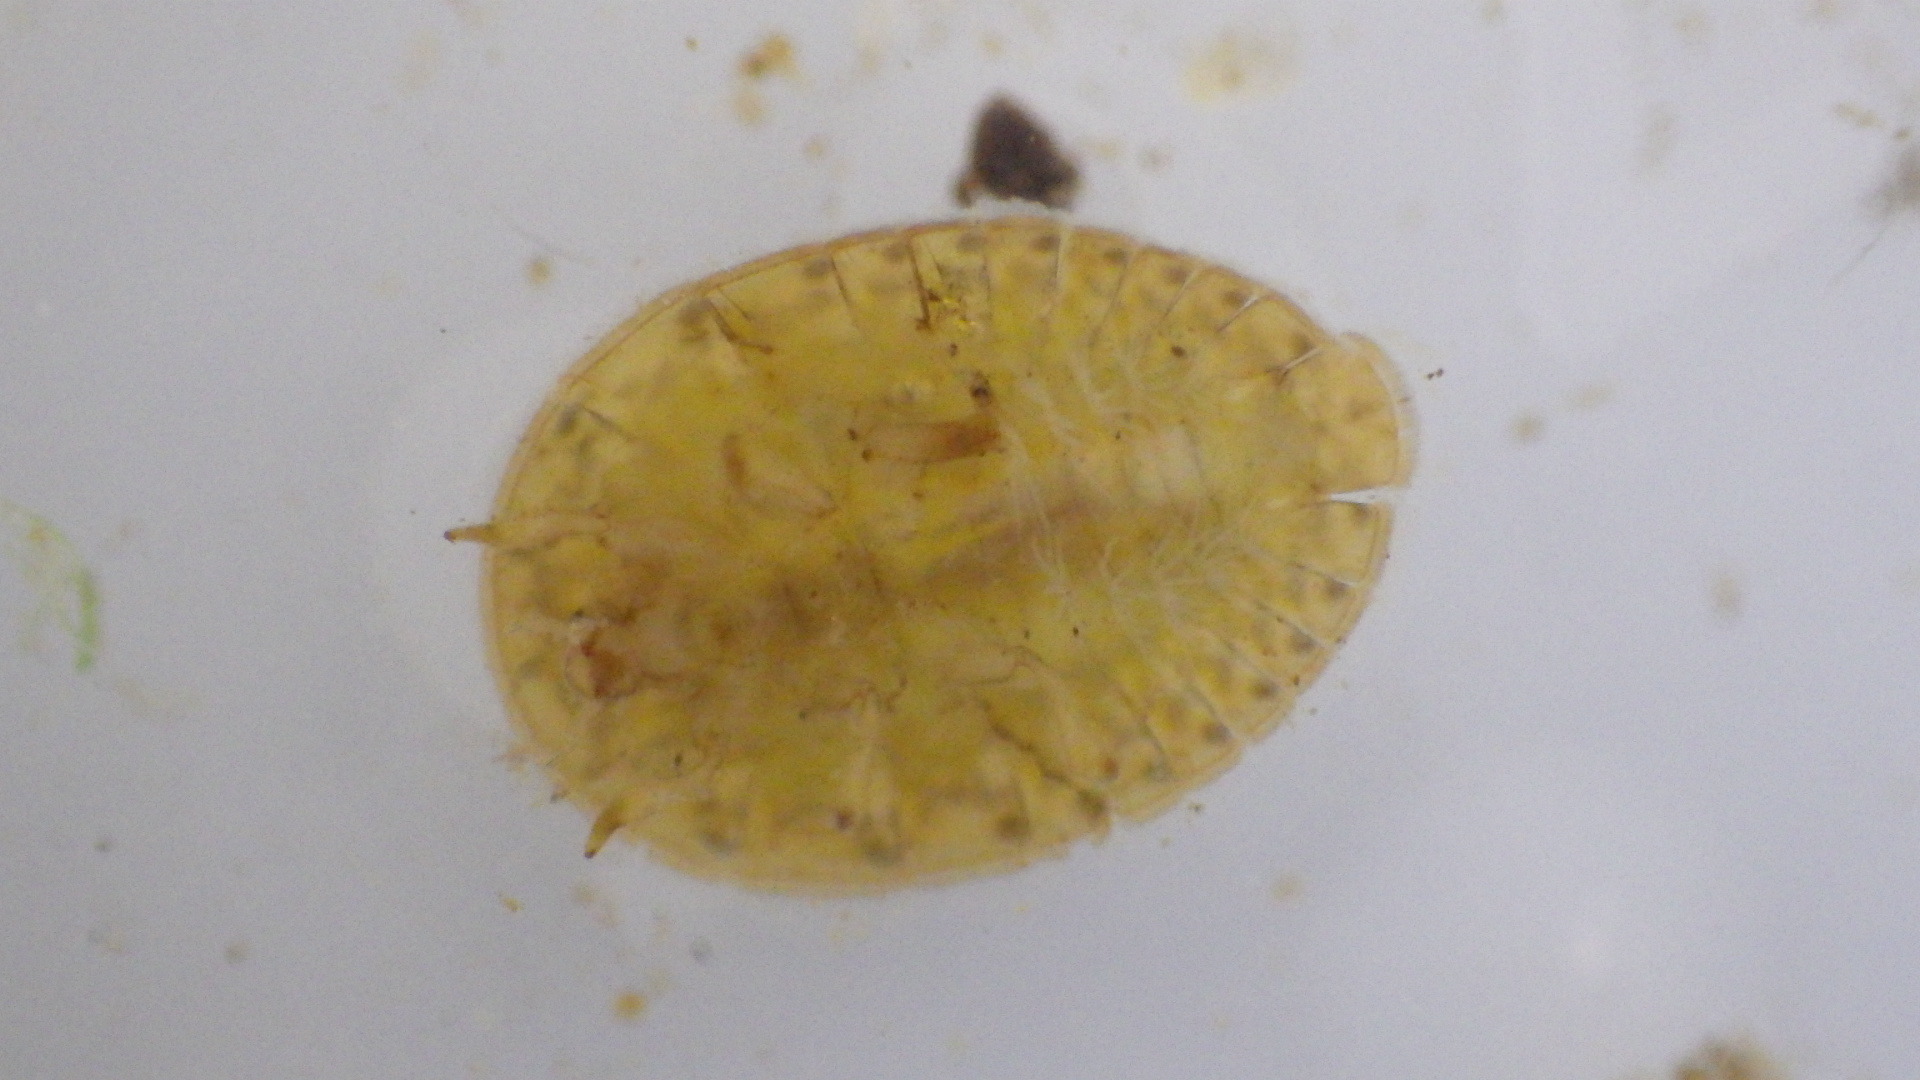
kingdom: Animalia
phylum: Arthropoda
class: Insecta
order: Coleoptera
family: Psephenidae
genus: Psephenus
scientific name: Psephenus herricki
